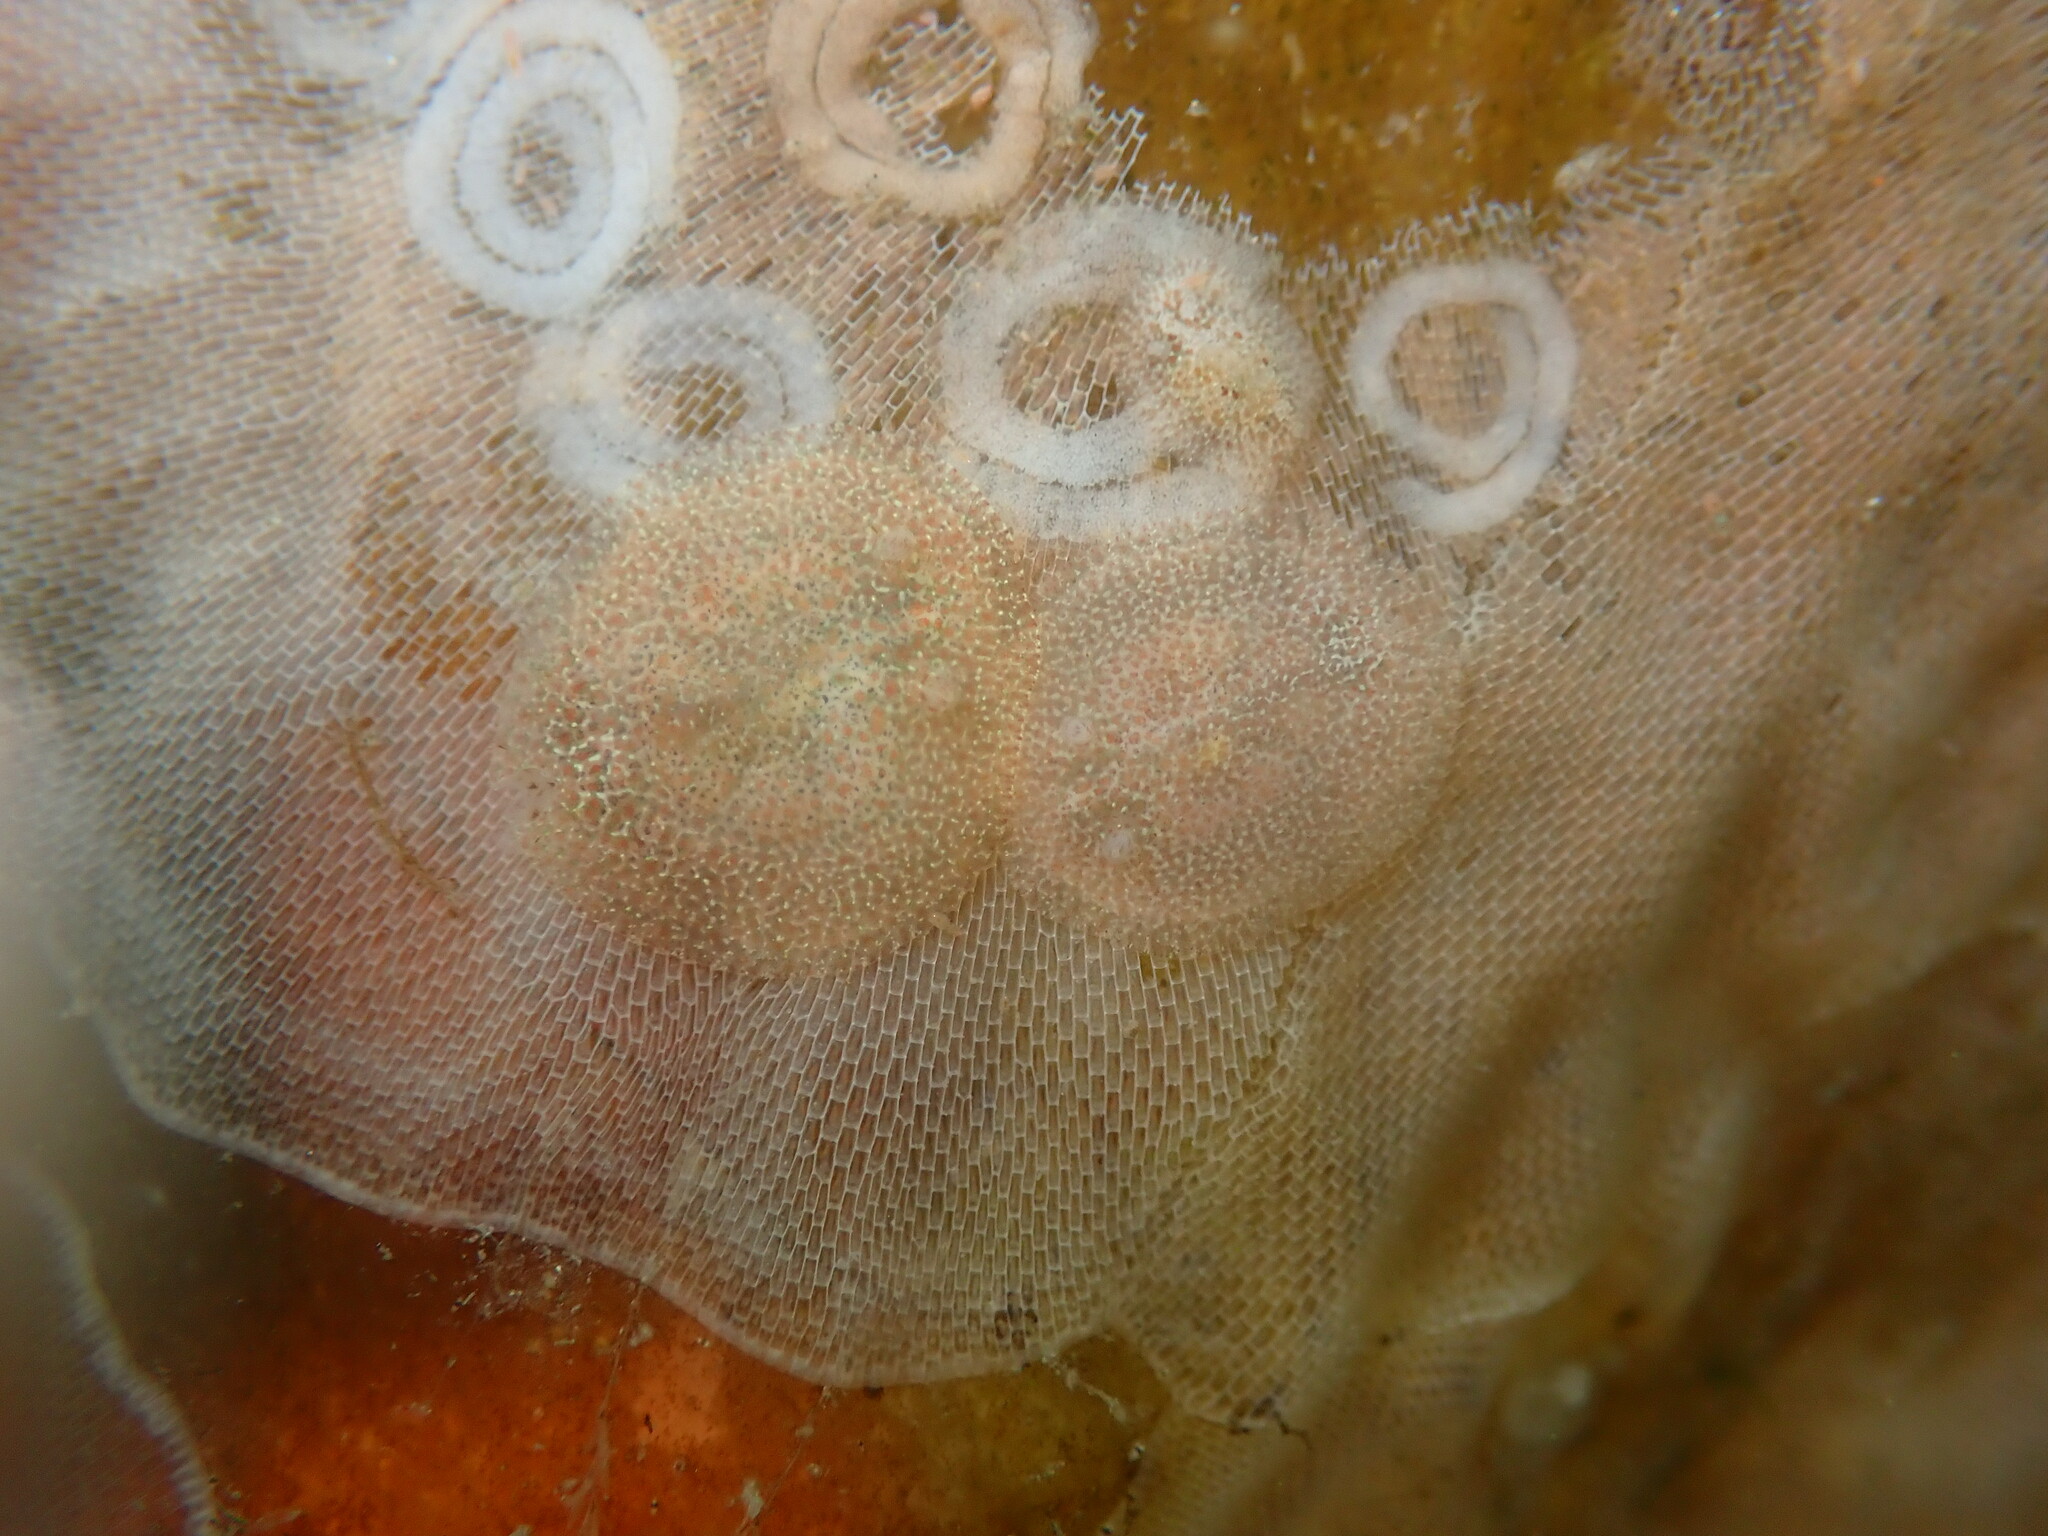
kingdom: Animalia
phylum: Mollusca
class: Gastropoda
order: Nudibranchia
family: Corambidae
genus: Corambe
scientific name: Corambe pacifica
